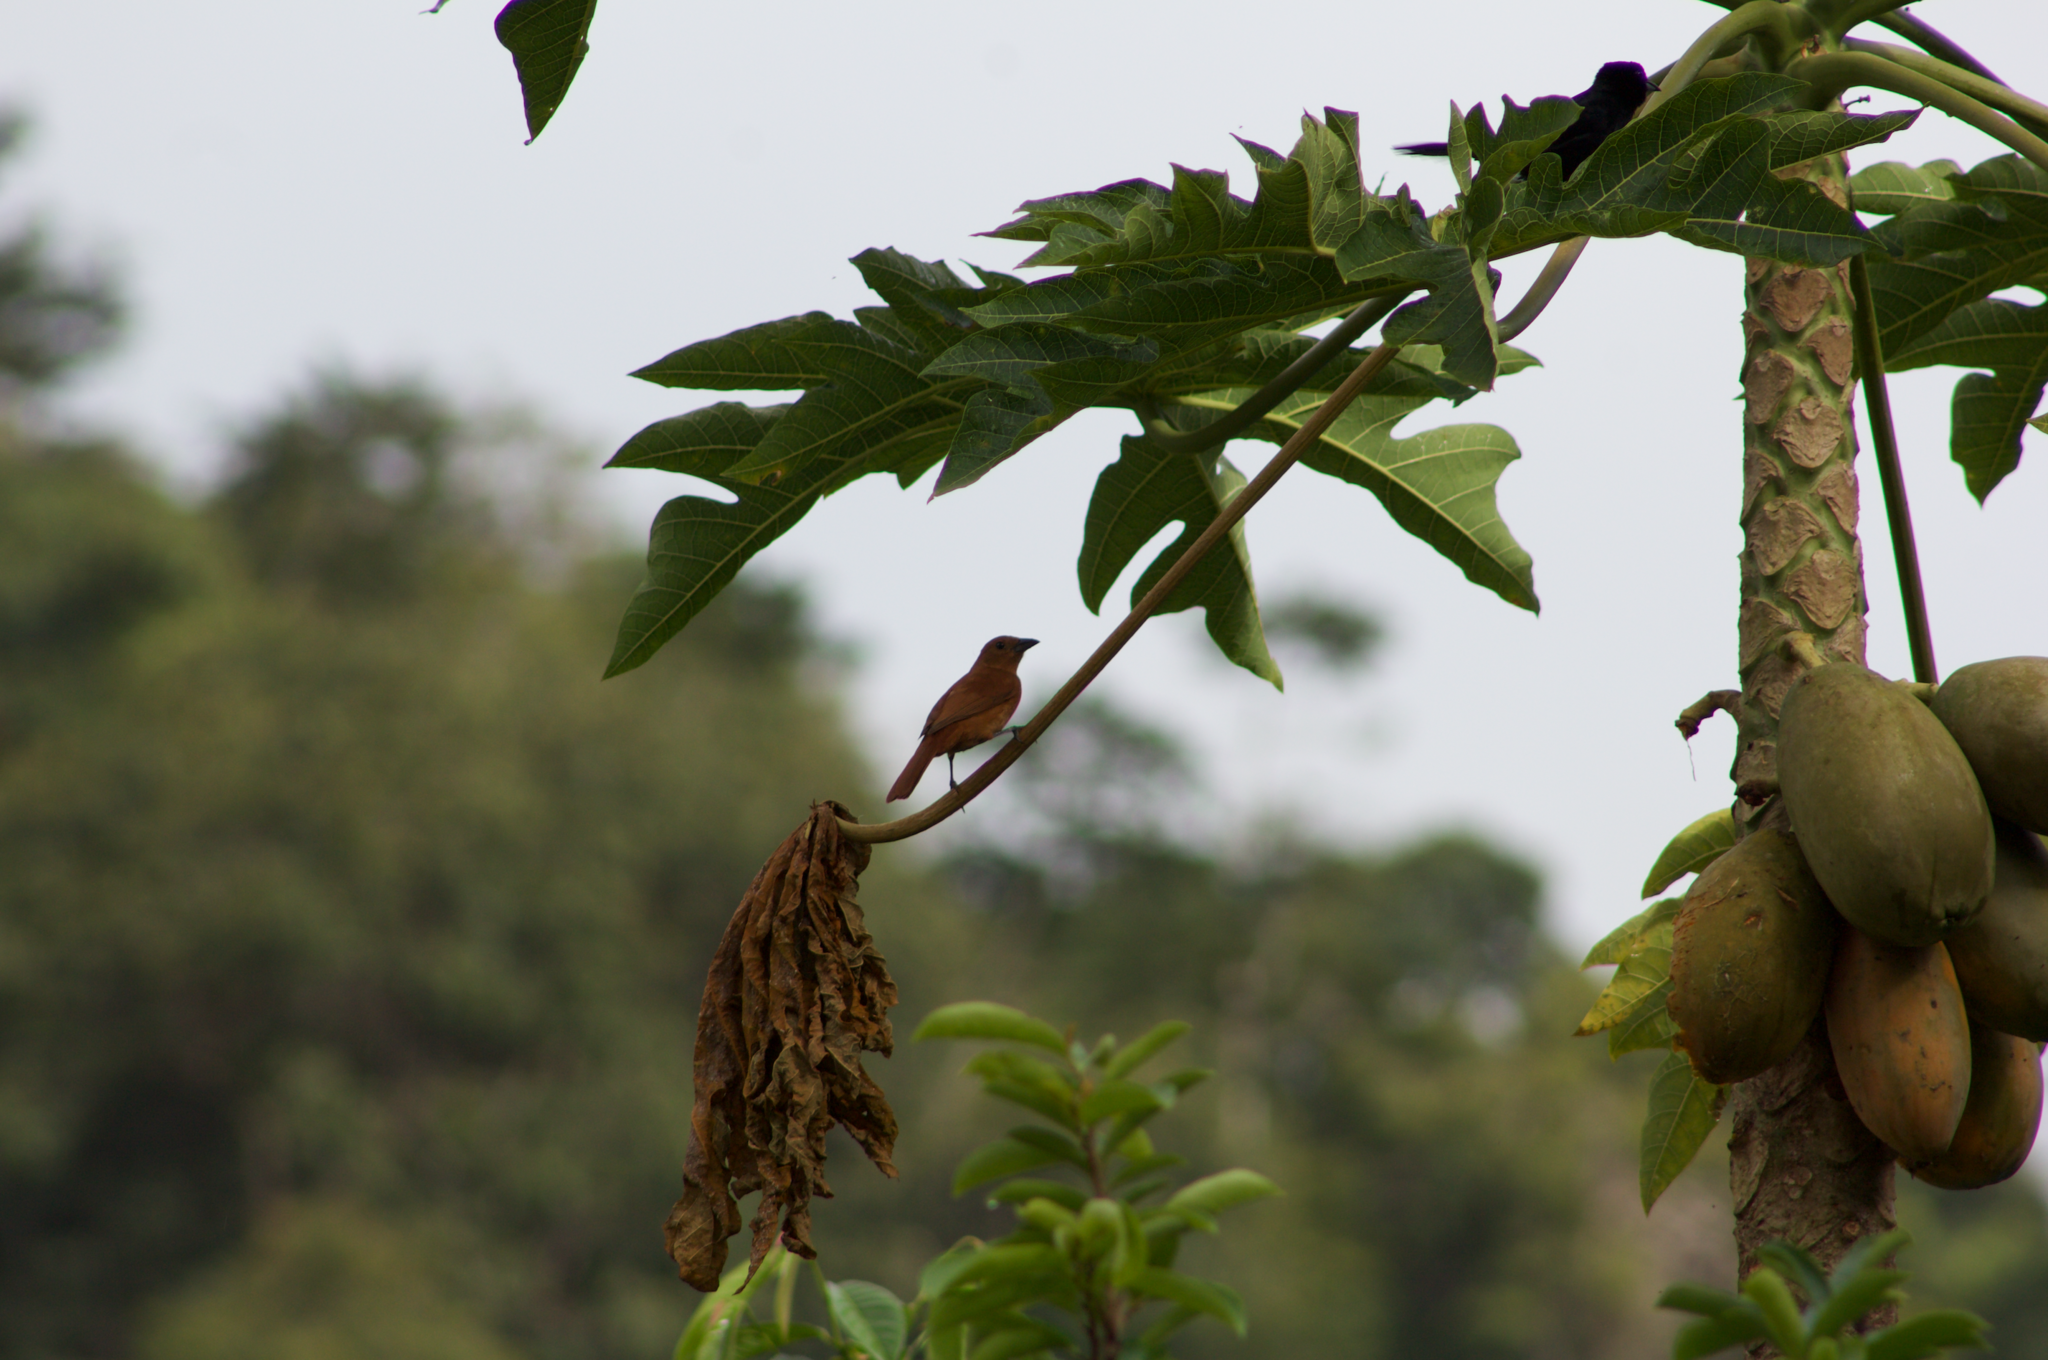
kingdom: Animalia
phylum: Chordata
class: Aves
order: Passeriformes
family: Thraupidae
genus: Tachyphonus
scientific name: Tachyphonus rufus
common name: White-lined tanager
